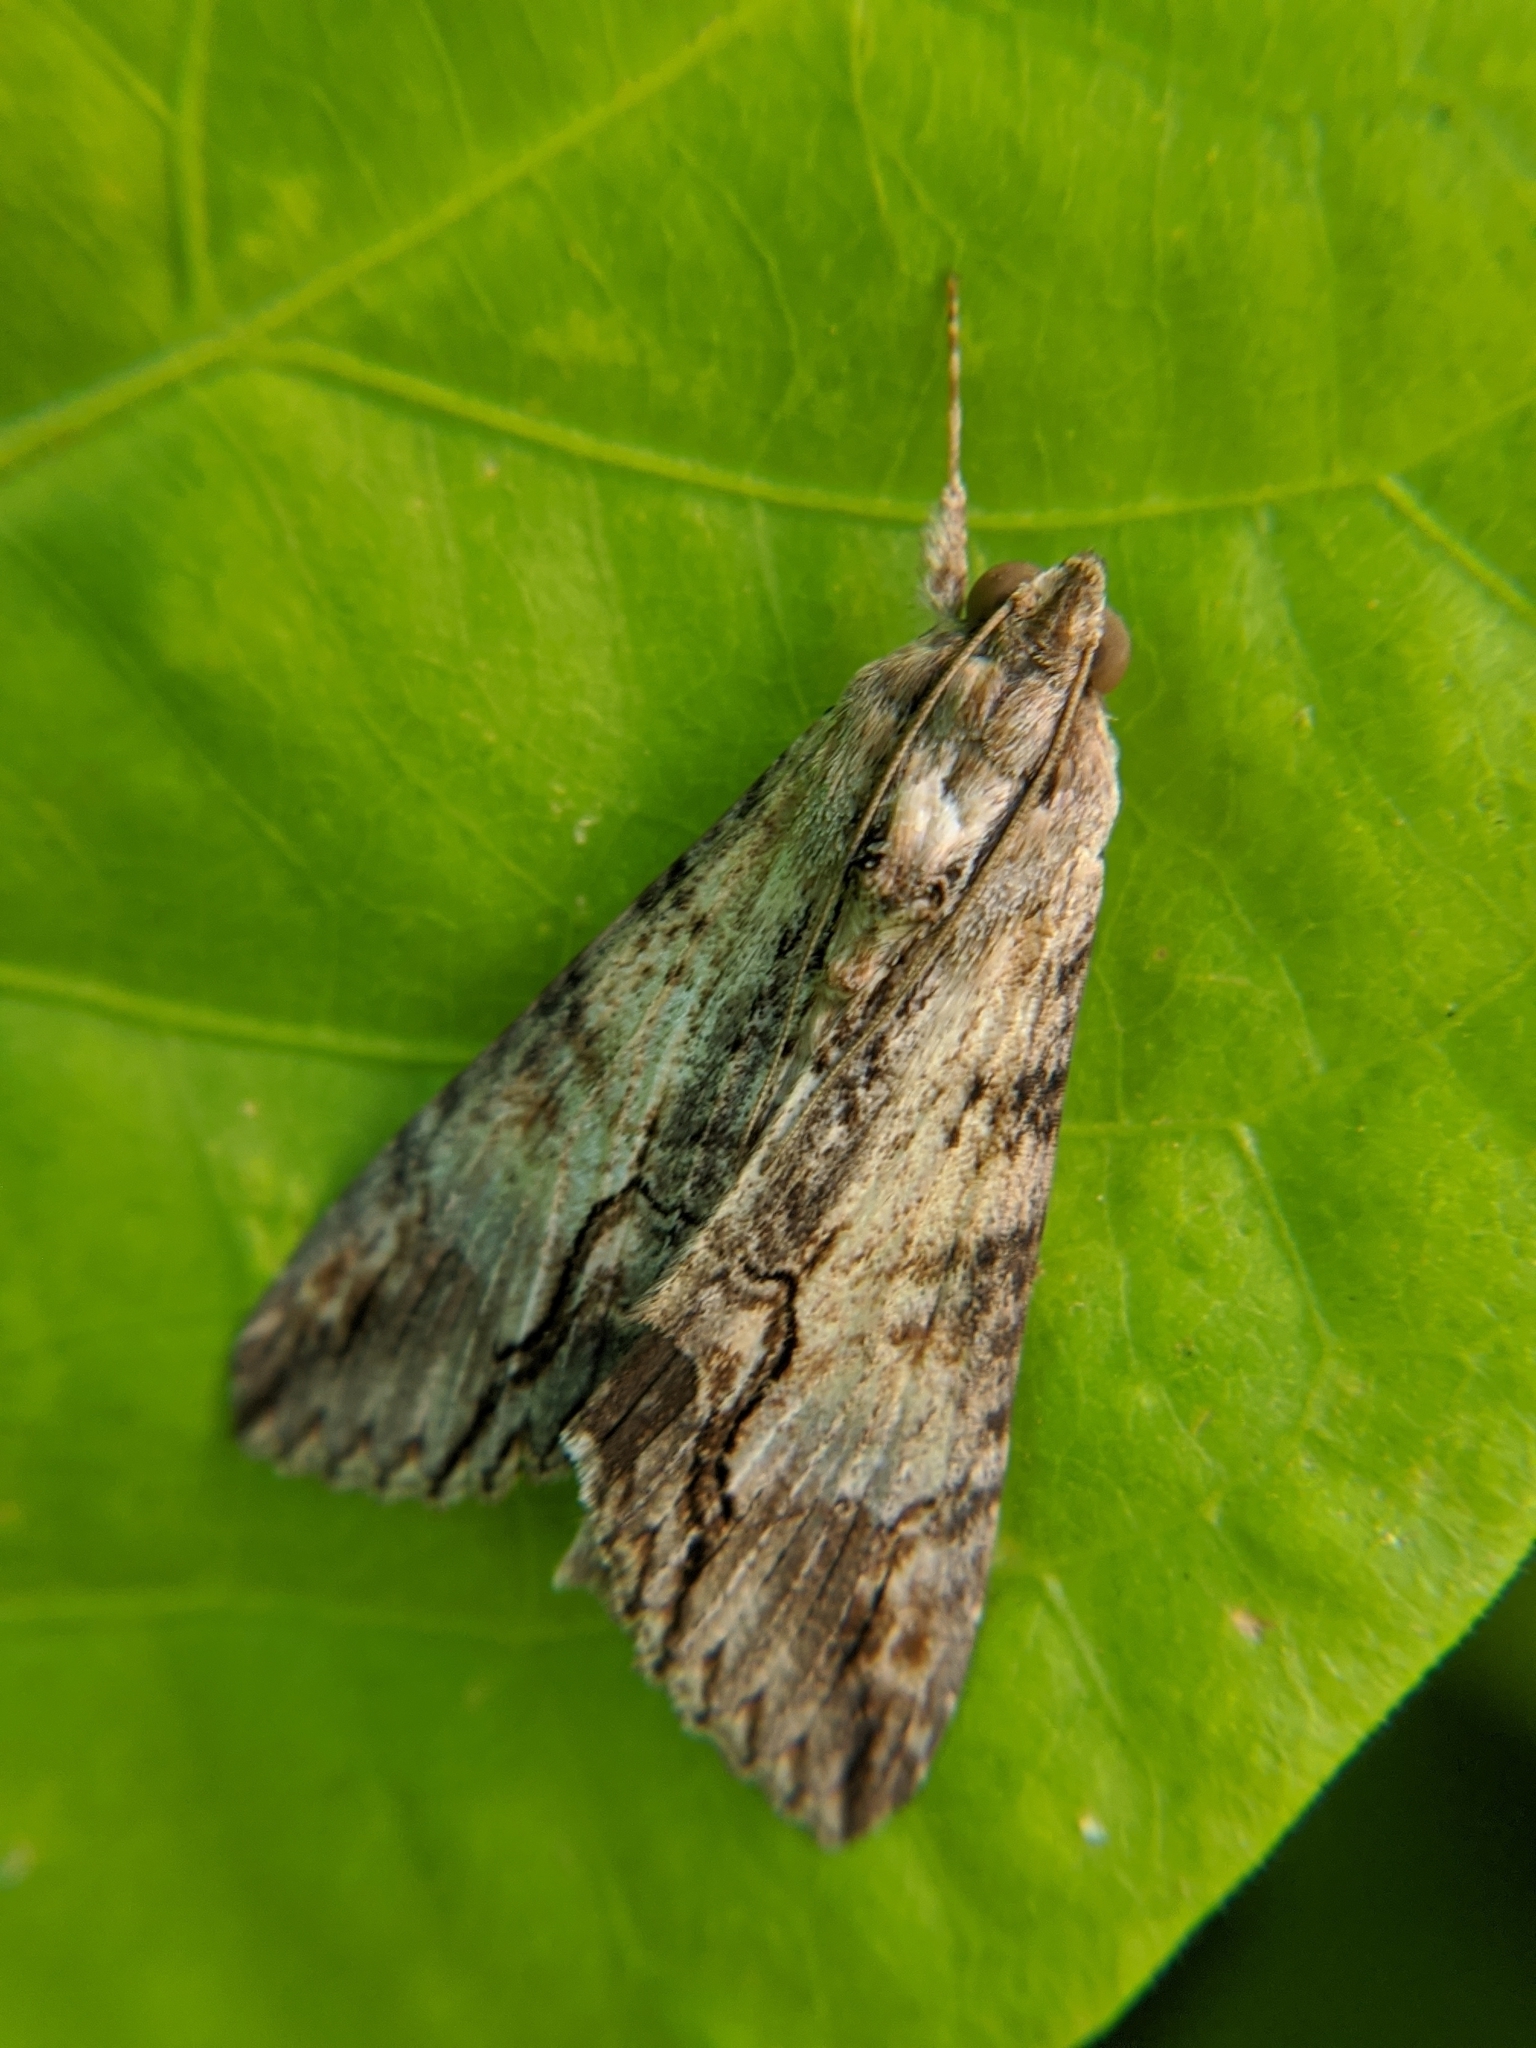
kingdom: Animalia
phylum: Arthropoda
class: Insecta
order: Lepidoptera
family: Erebidae
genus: Melipotis
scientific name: Melipotis acontioides
